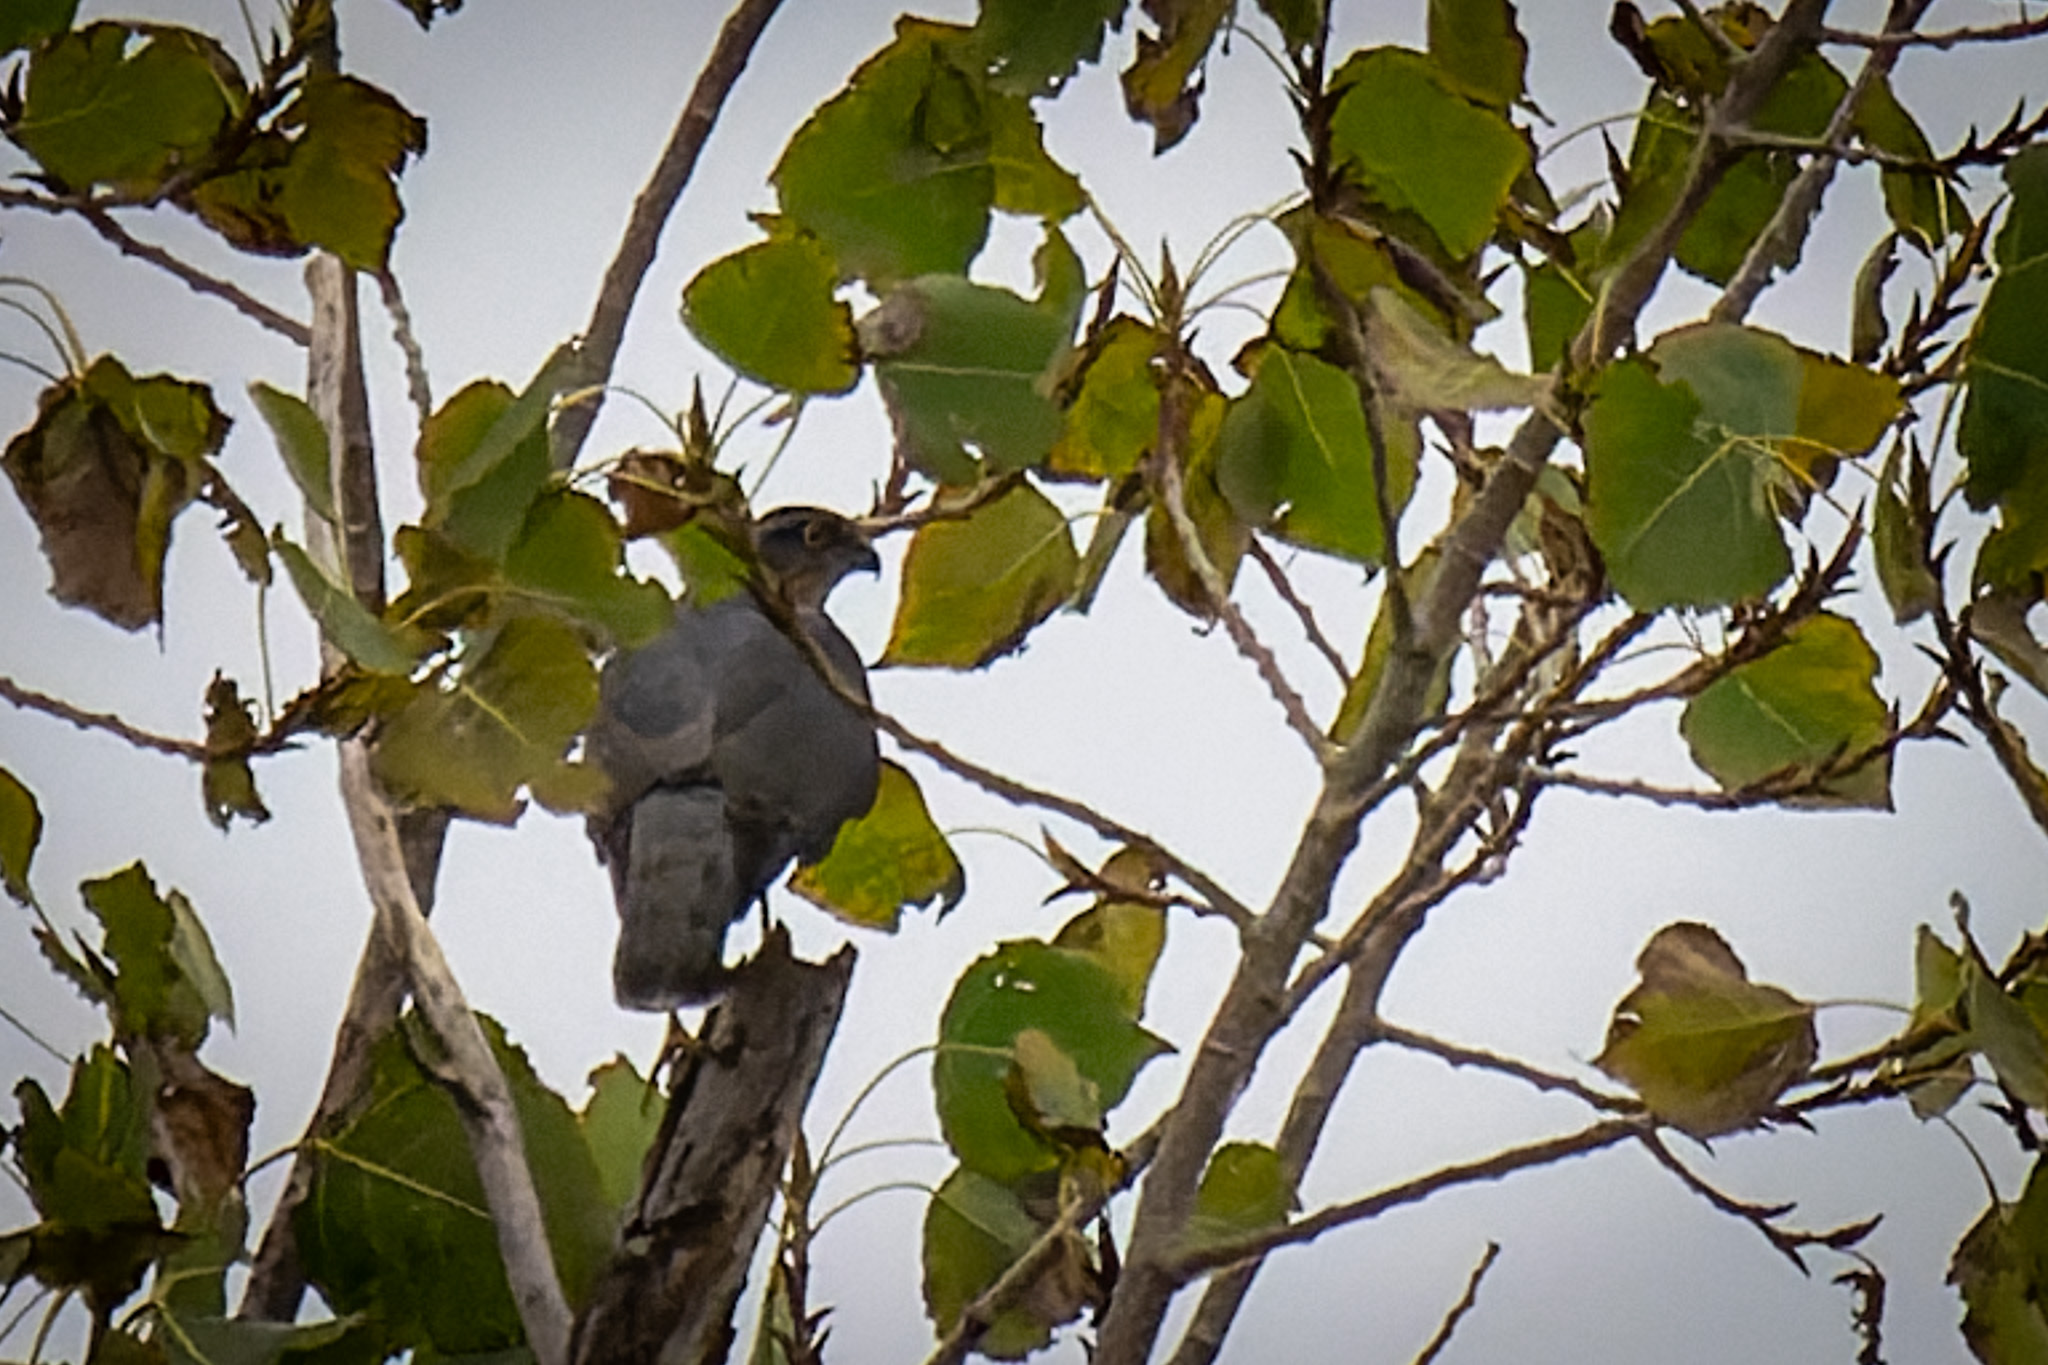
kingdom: Animalia
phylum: Chordata
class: Aves
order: Accipitriformes
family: Accipitridae
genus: Accipiter
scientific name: Accipiter nisus
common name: Eurasian sparrowhawk
